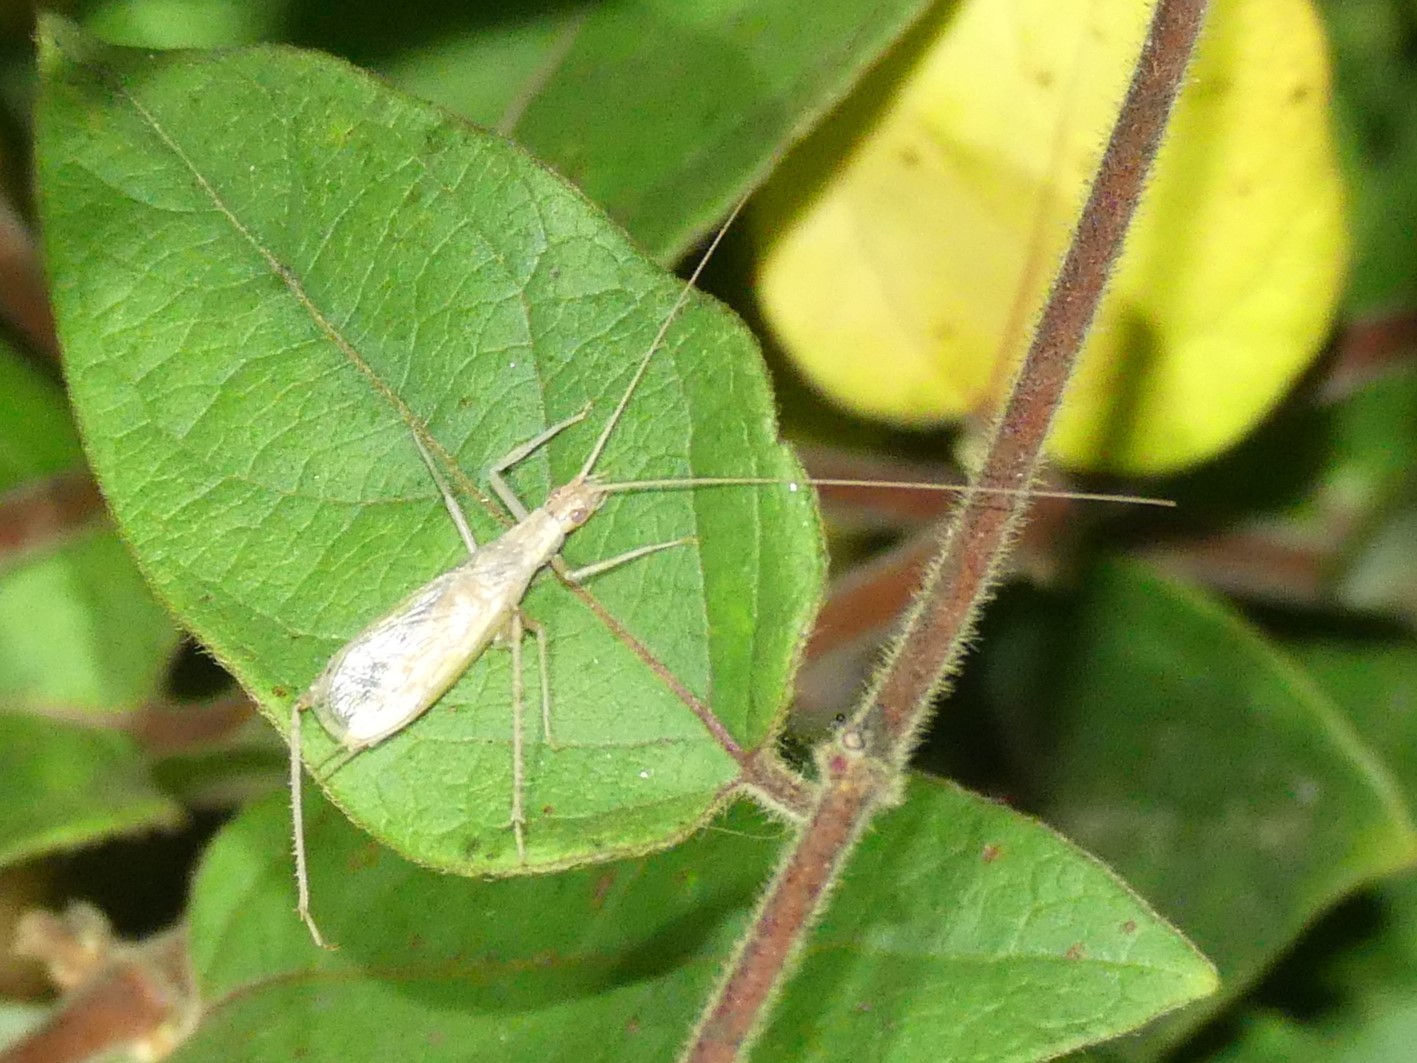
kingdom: Animalia
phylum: Arthropoda
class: Insecta
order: Orthoptera
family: Gryllidae
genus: Oecanthus
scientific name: Oecanthus pellucens
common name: Tree-cricket
